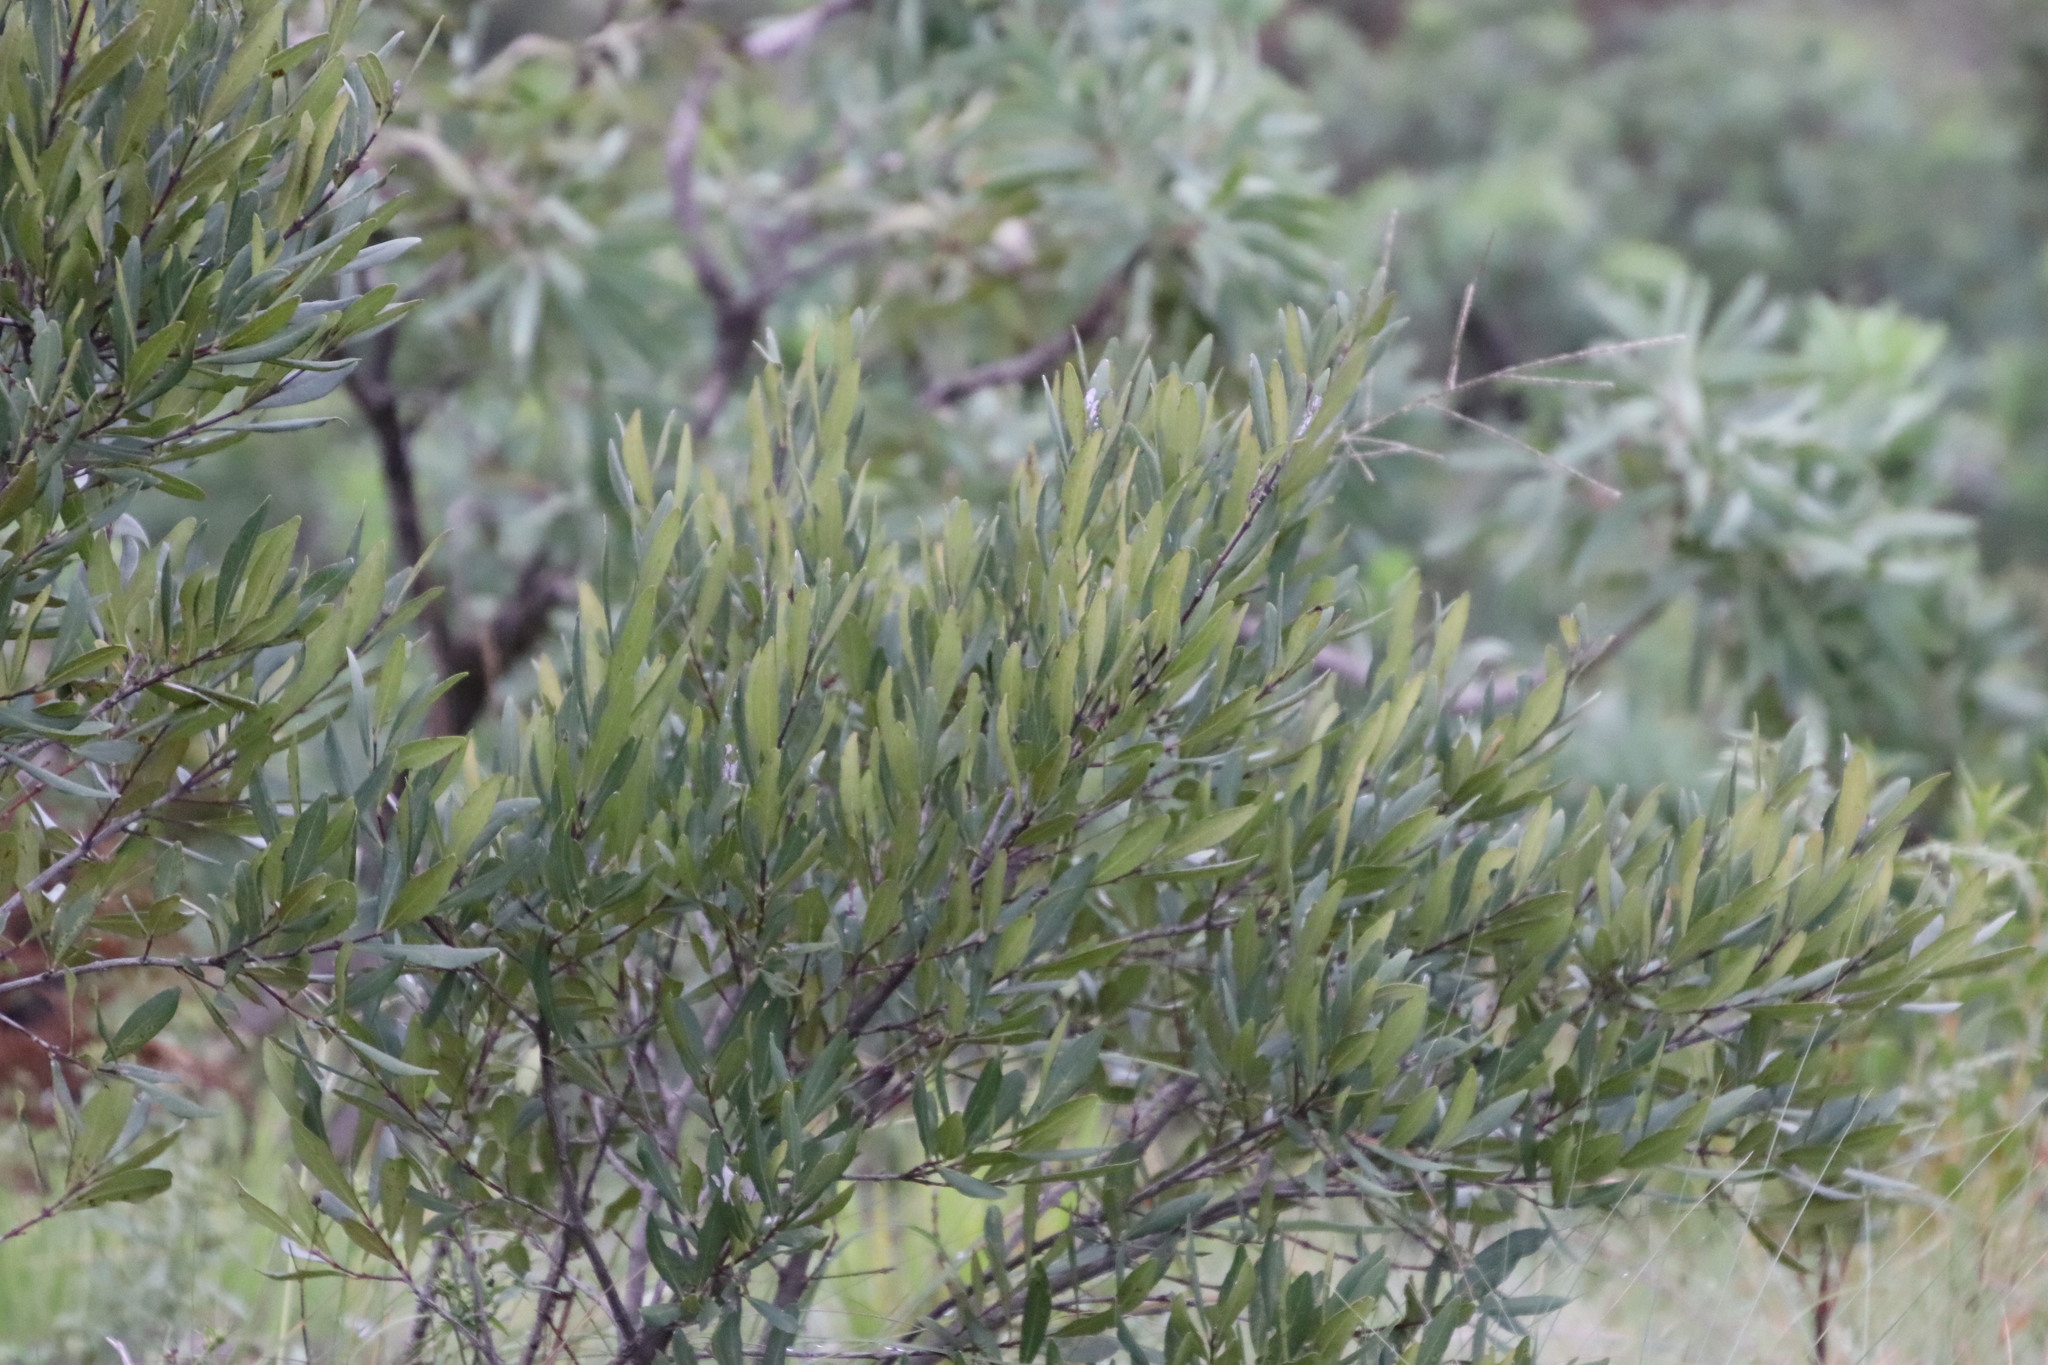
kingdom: Plantae
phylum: Tracheophyta
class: Magnoliopsida
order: Ericales
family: Ebenaceae
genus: Euclea
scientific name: Euclea crispa
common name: Blue guarri
